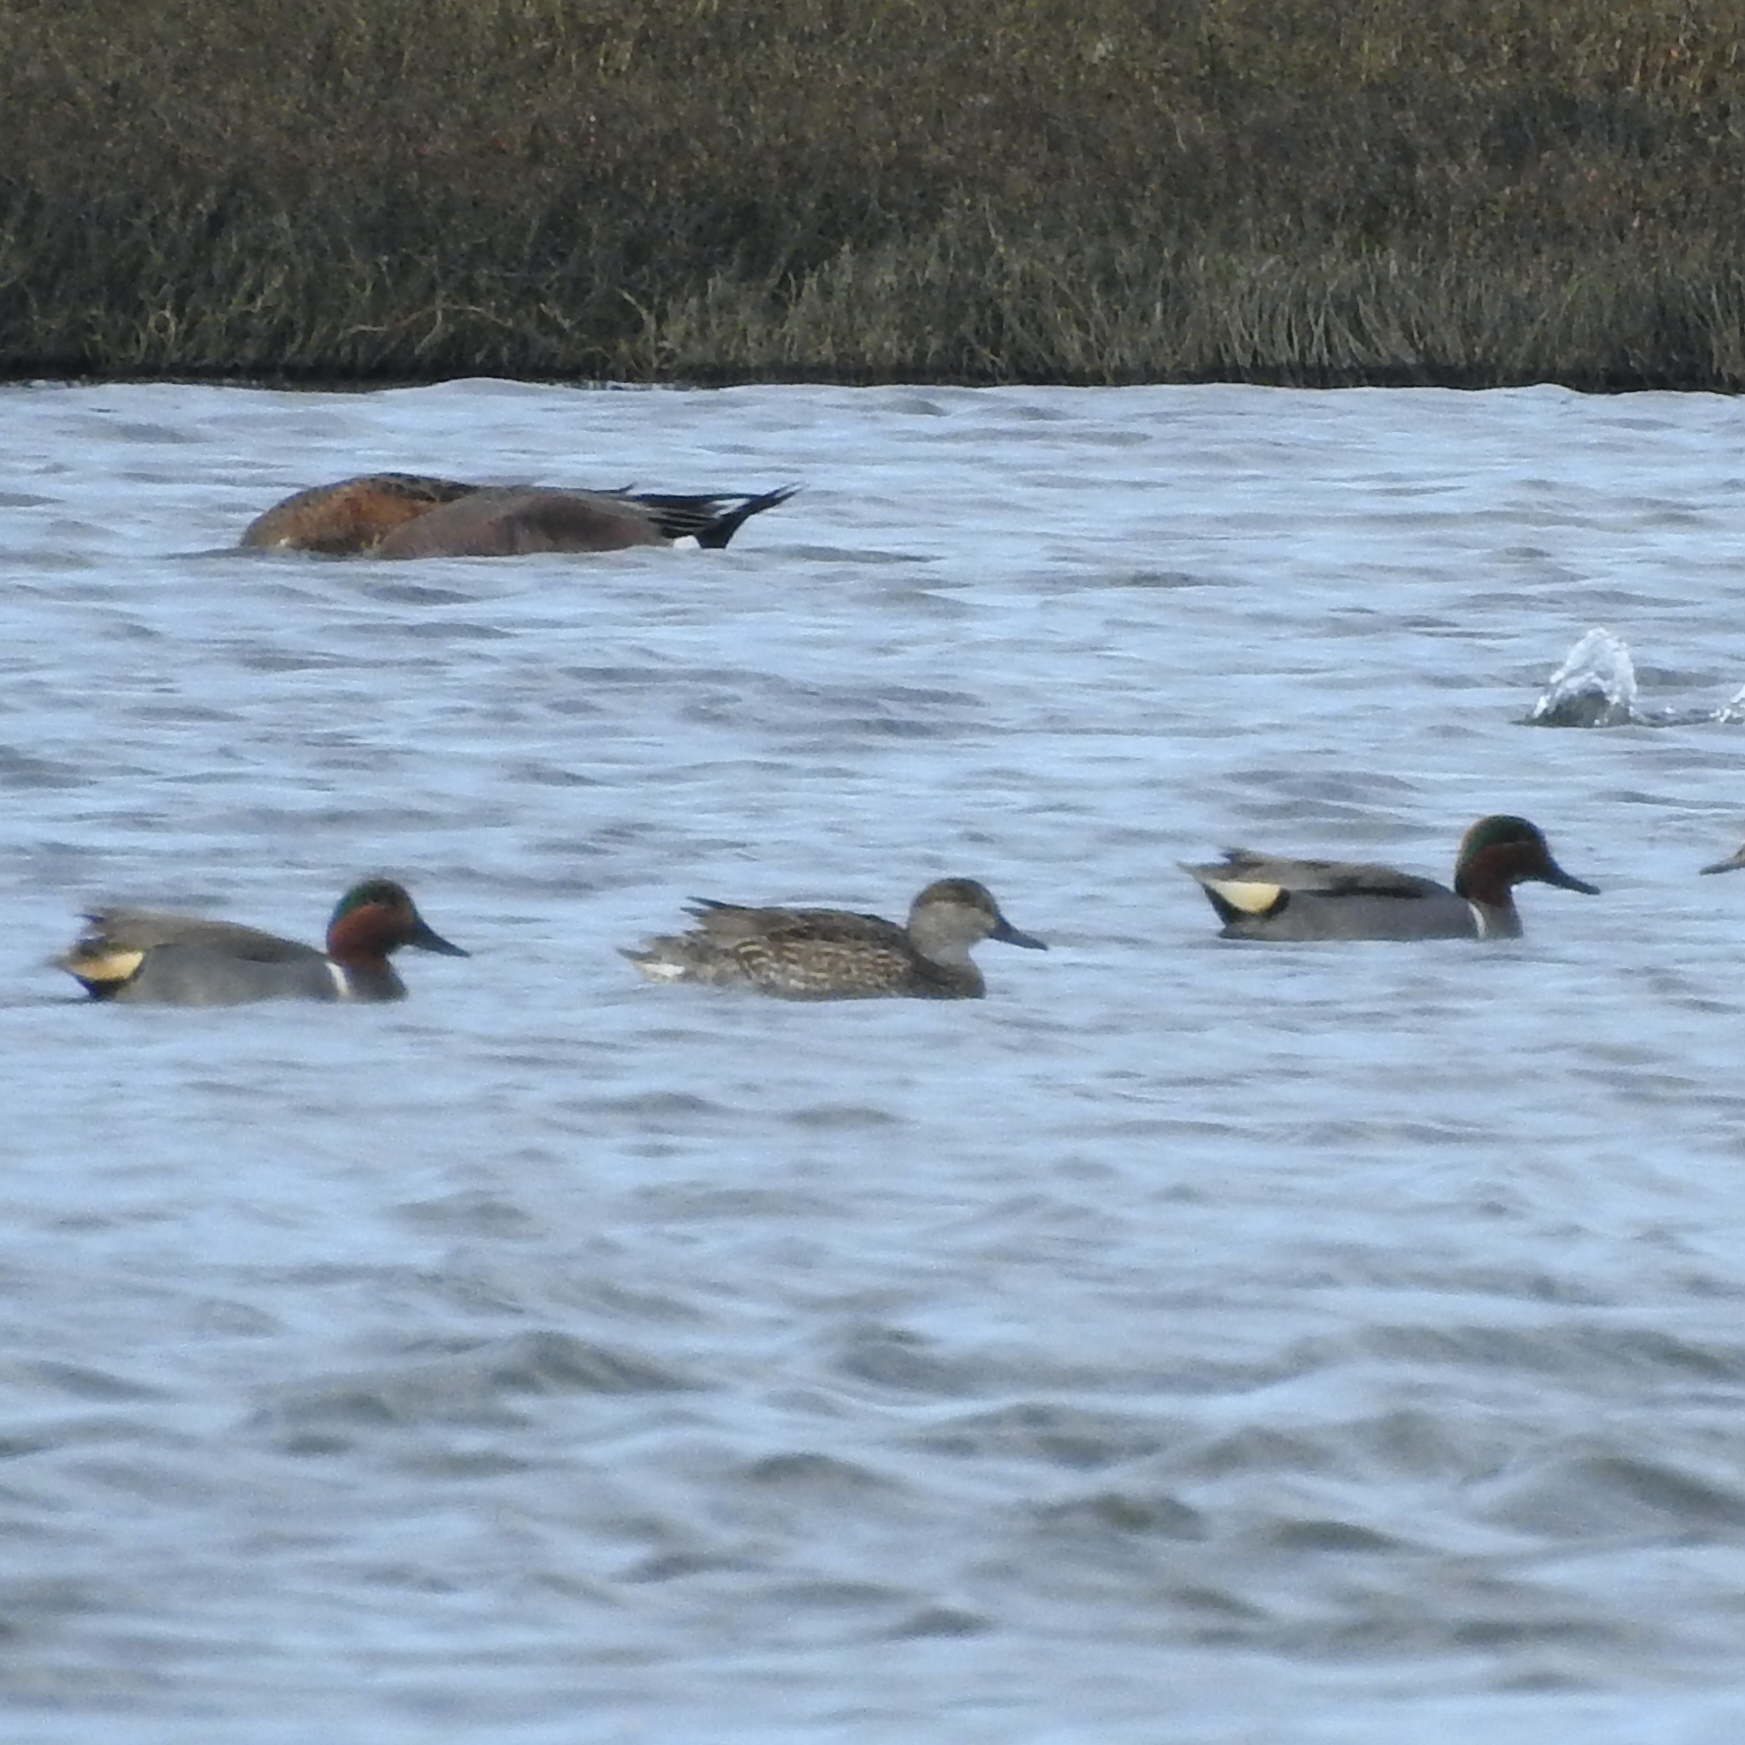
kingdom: Animalia
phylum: Chordata
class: Aves
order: Anseriformes
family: Anatidae
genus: Anas
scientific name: Anas crecca
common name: Eurasian teal
